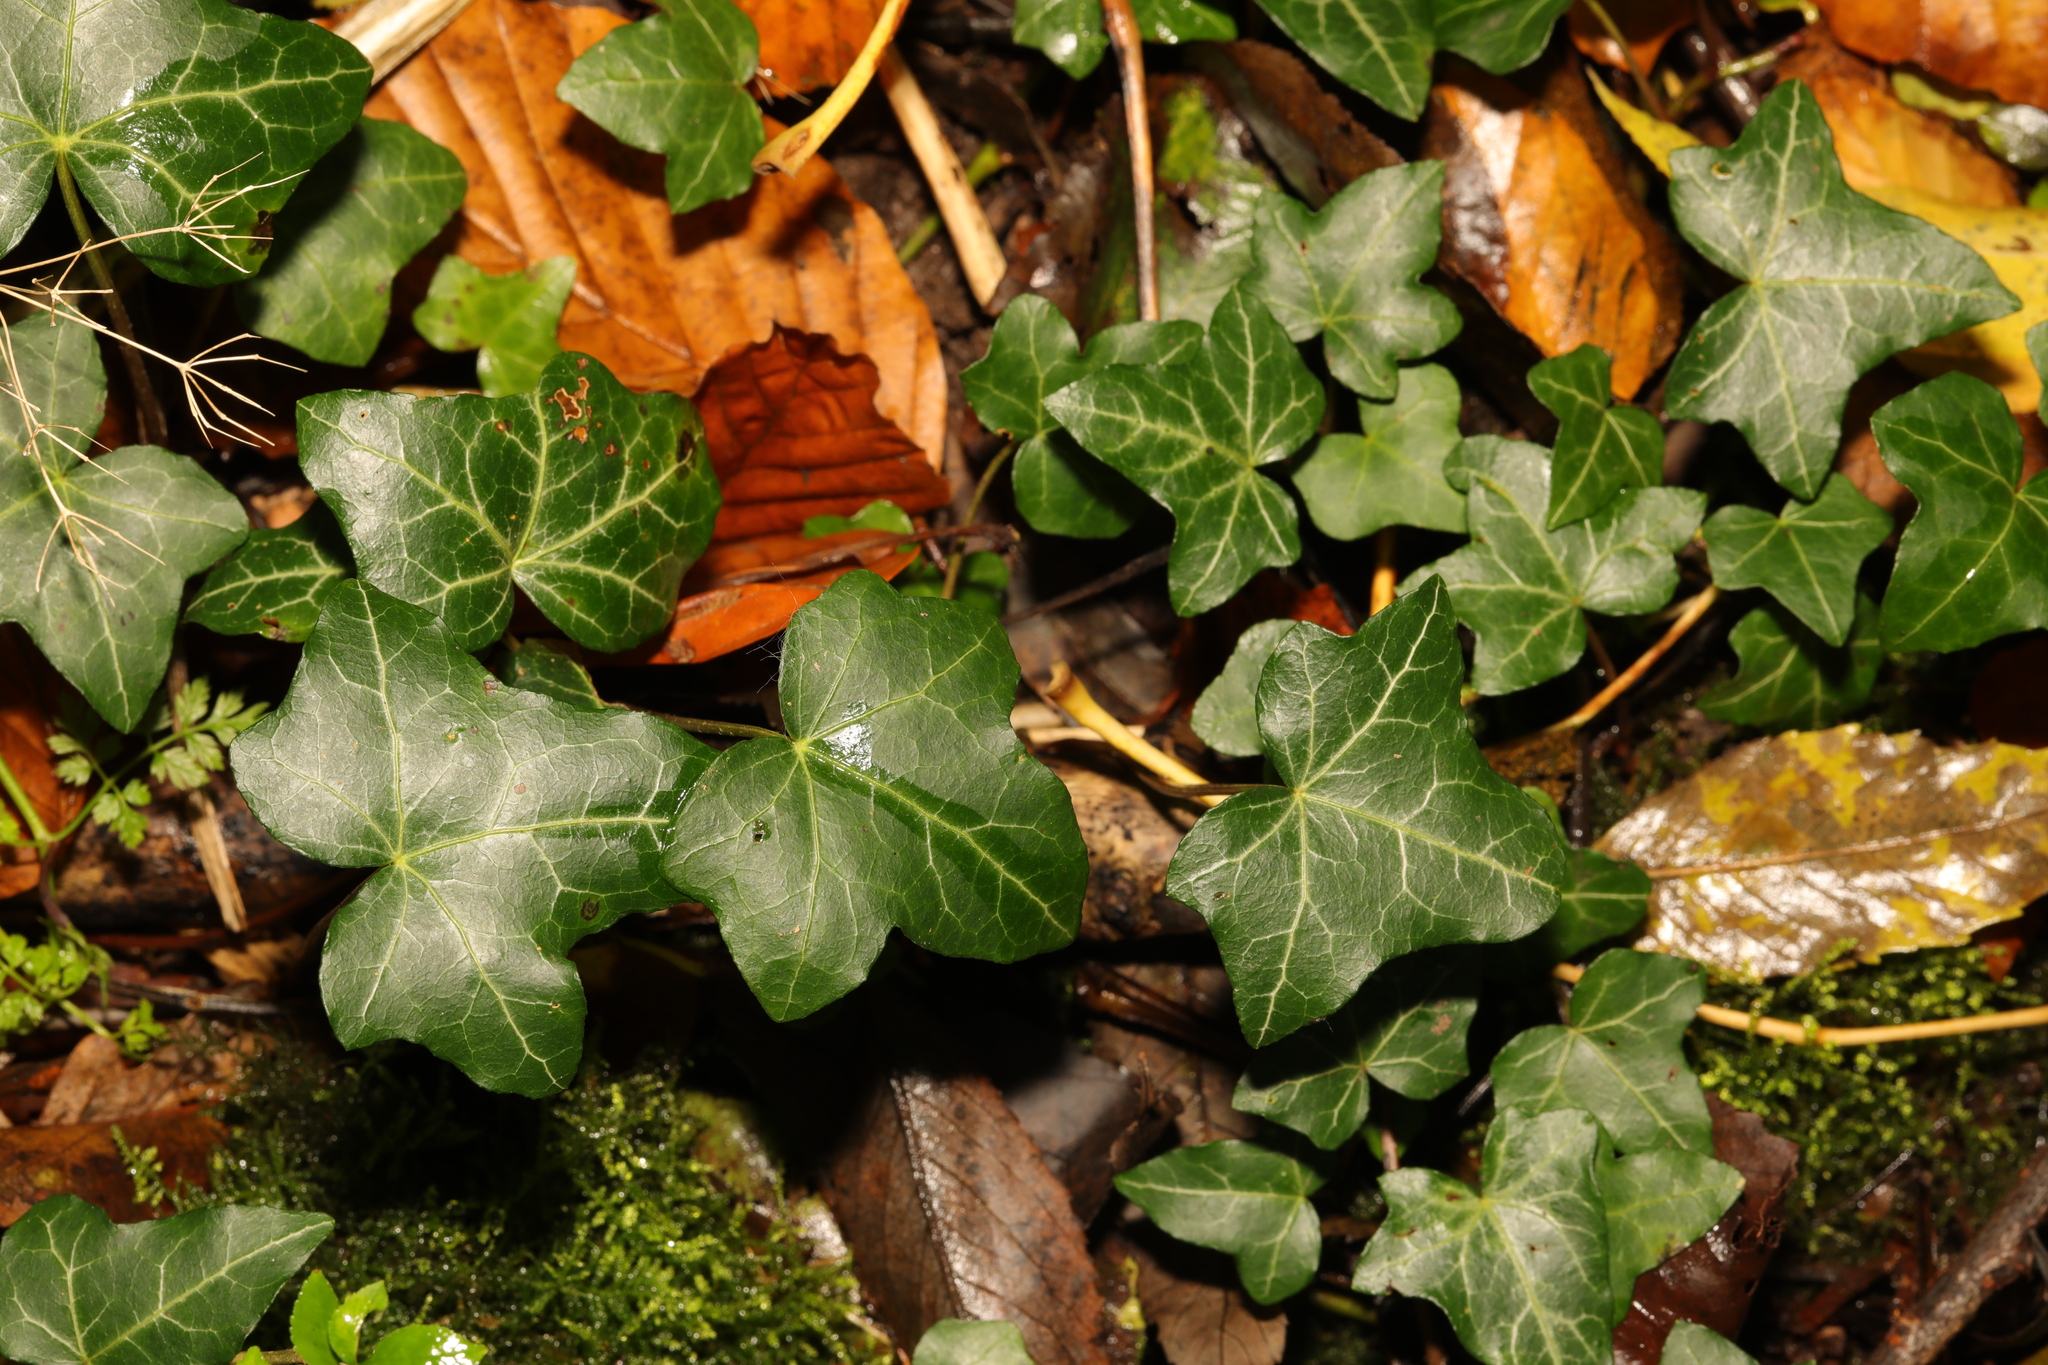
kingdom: Plantae
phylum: Tracheophyta
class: Magnoliopsida
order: Apiales
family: Araliaceae
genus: Hedera
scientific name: Hedera helix
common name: Ivy
